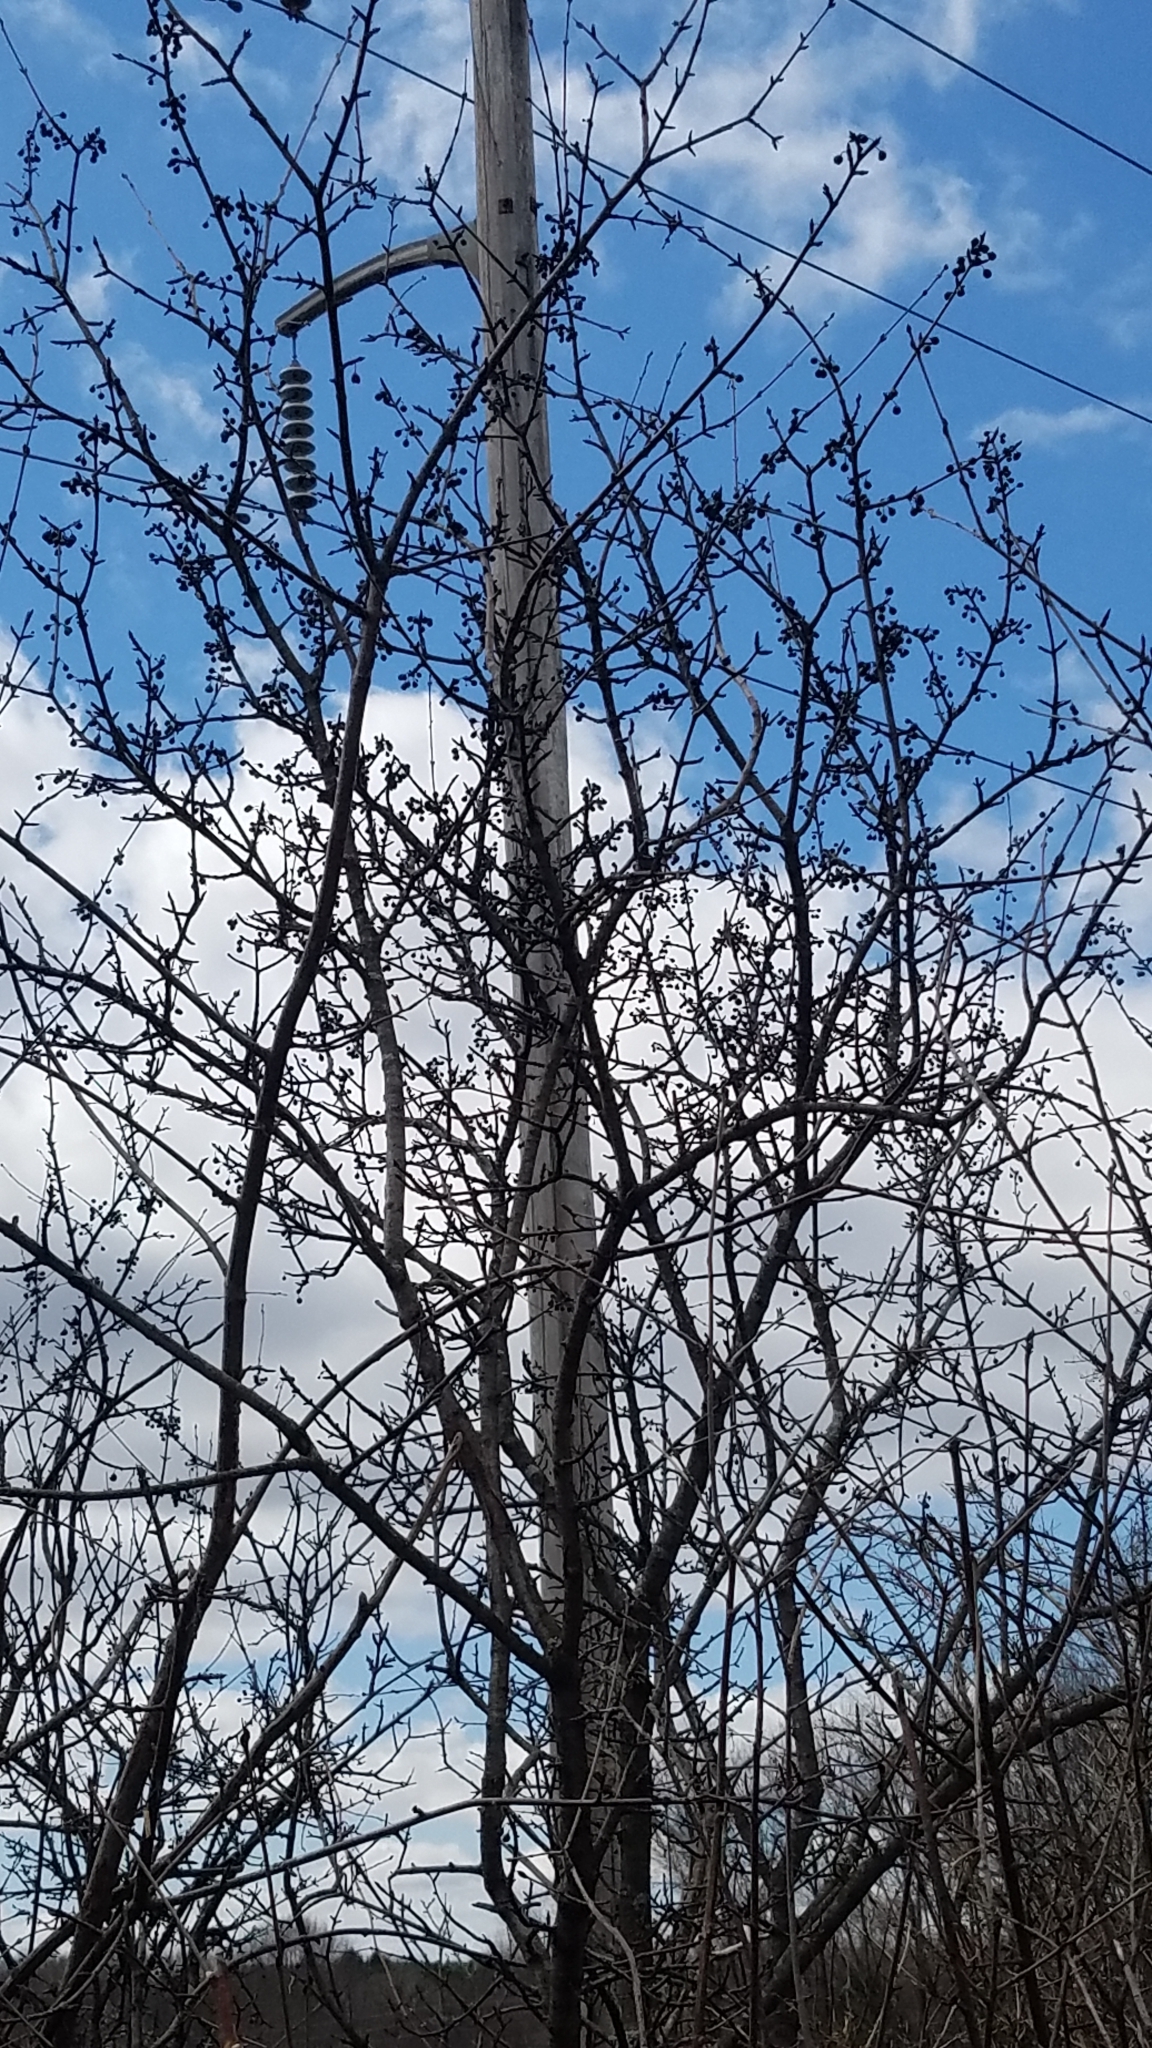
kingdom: Plantae
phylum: Tracheophyta
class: Magnoliopsida
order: Rosales
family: Rhamnaceae
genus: Rhamnus
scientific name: Rhamnus cathartica
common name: Common buckthorn
